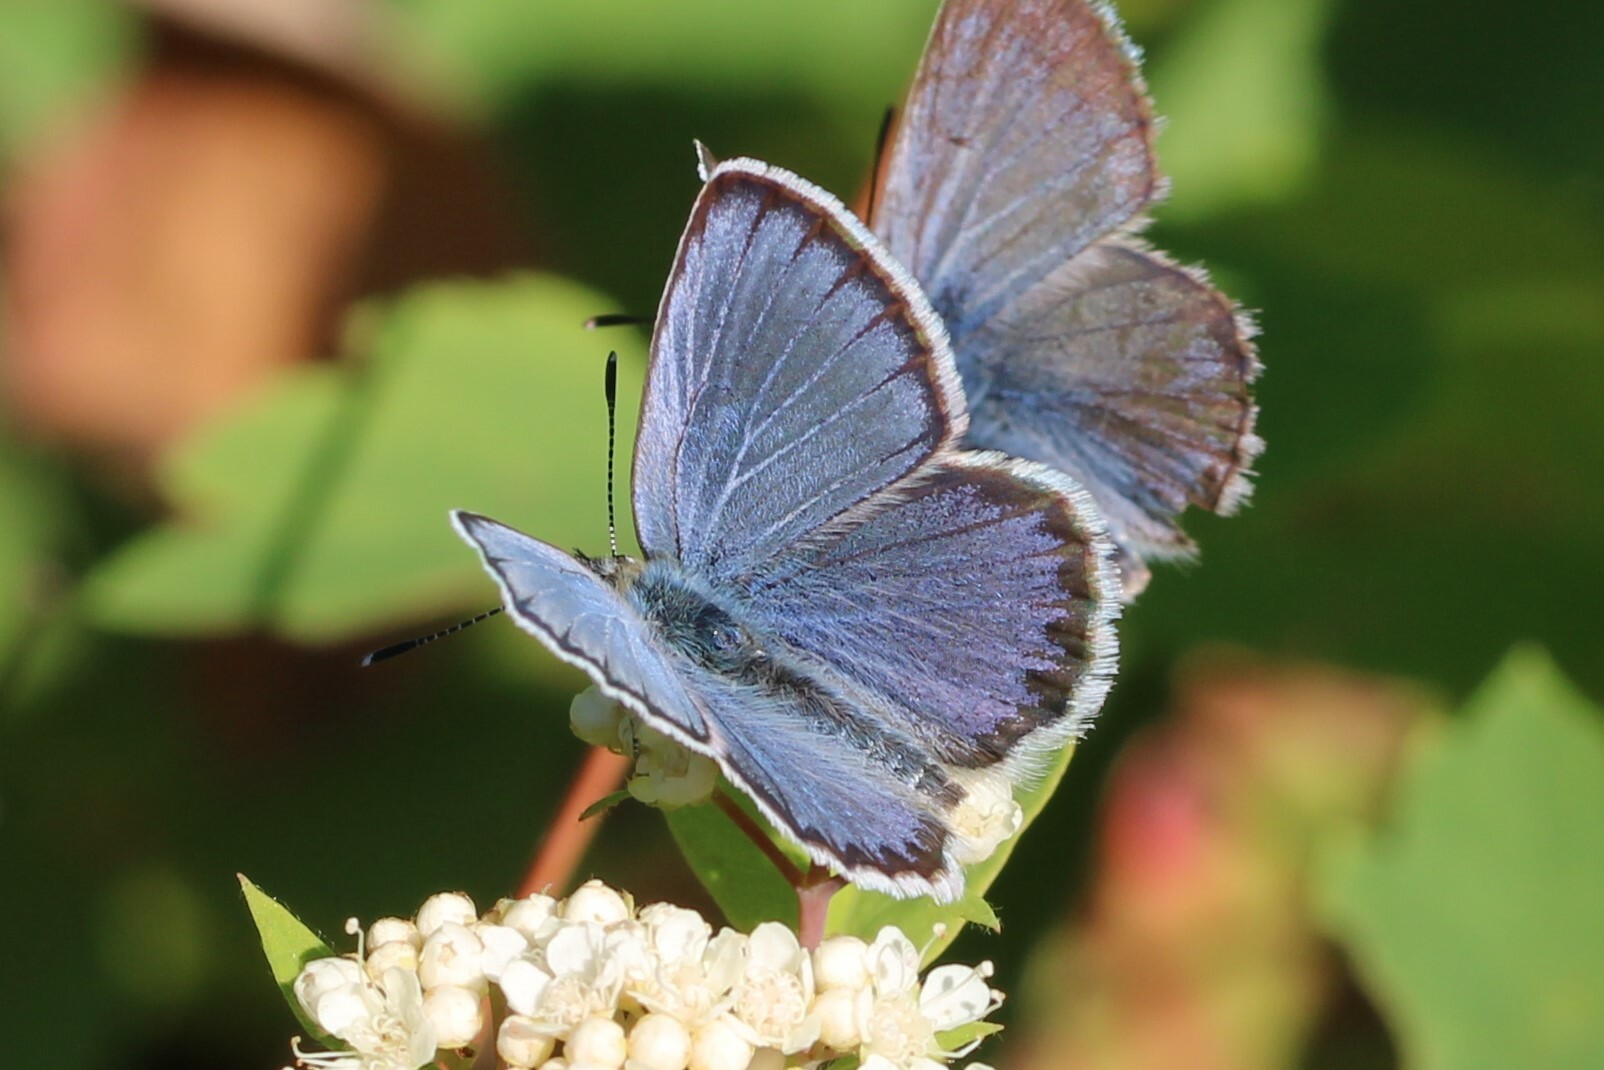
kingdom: Animalia
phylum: Arthropoda
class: Insecta
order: Lepidoptera
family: Lycaenidae
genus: Lycaeides
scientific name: Lycaeides idas
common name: Northern blue
